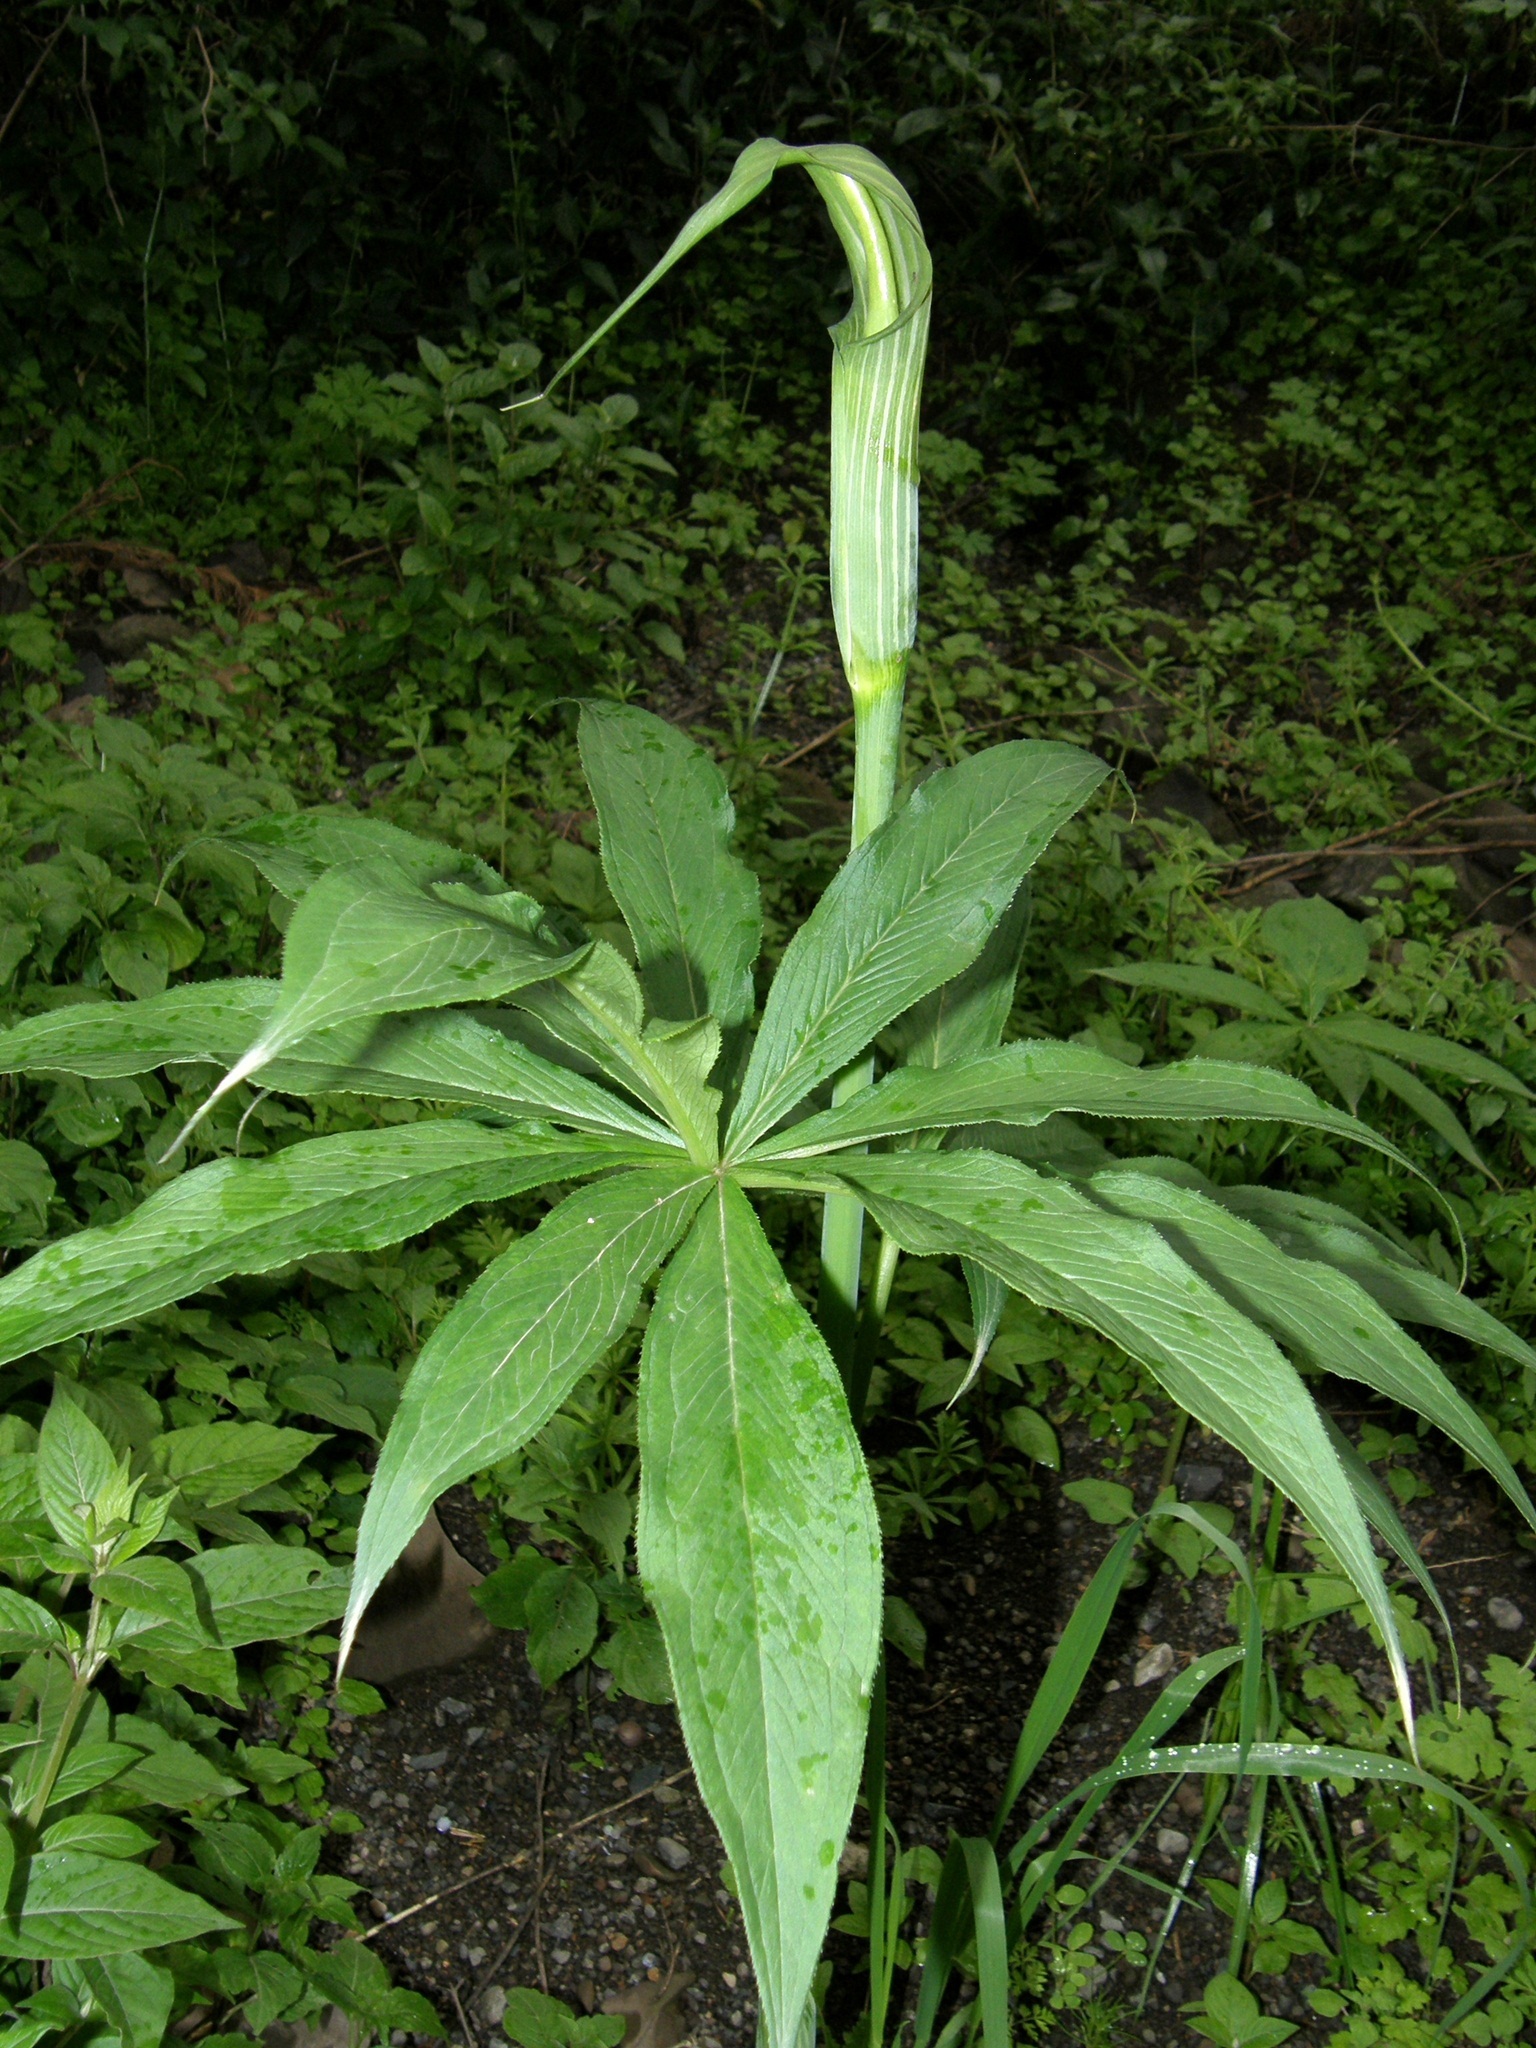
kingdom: Plantae
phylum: Tracheophyta
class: Liliopsida
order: Alismatales
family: Araceae
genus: Arisaema
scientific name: Arisaema schimperianum
